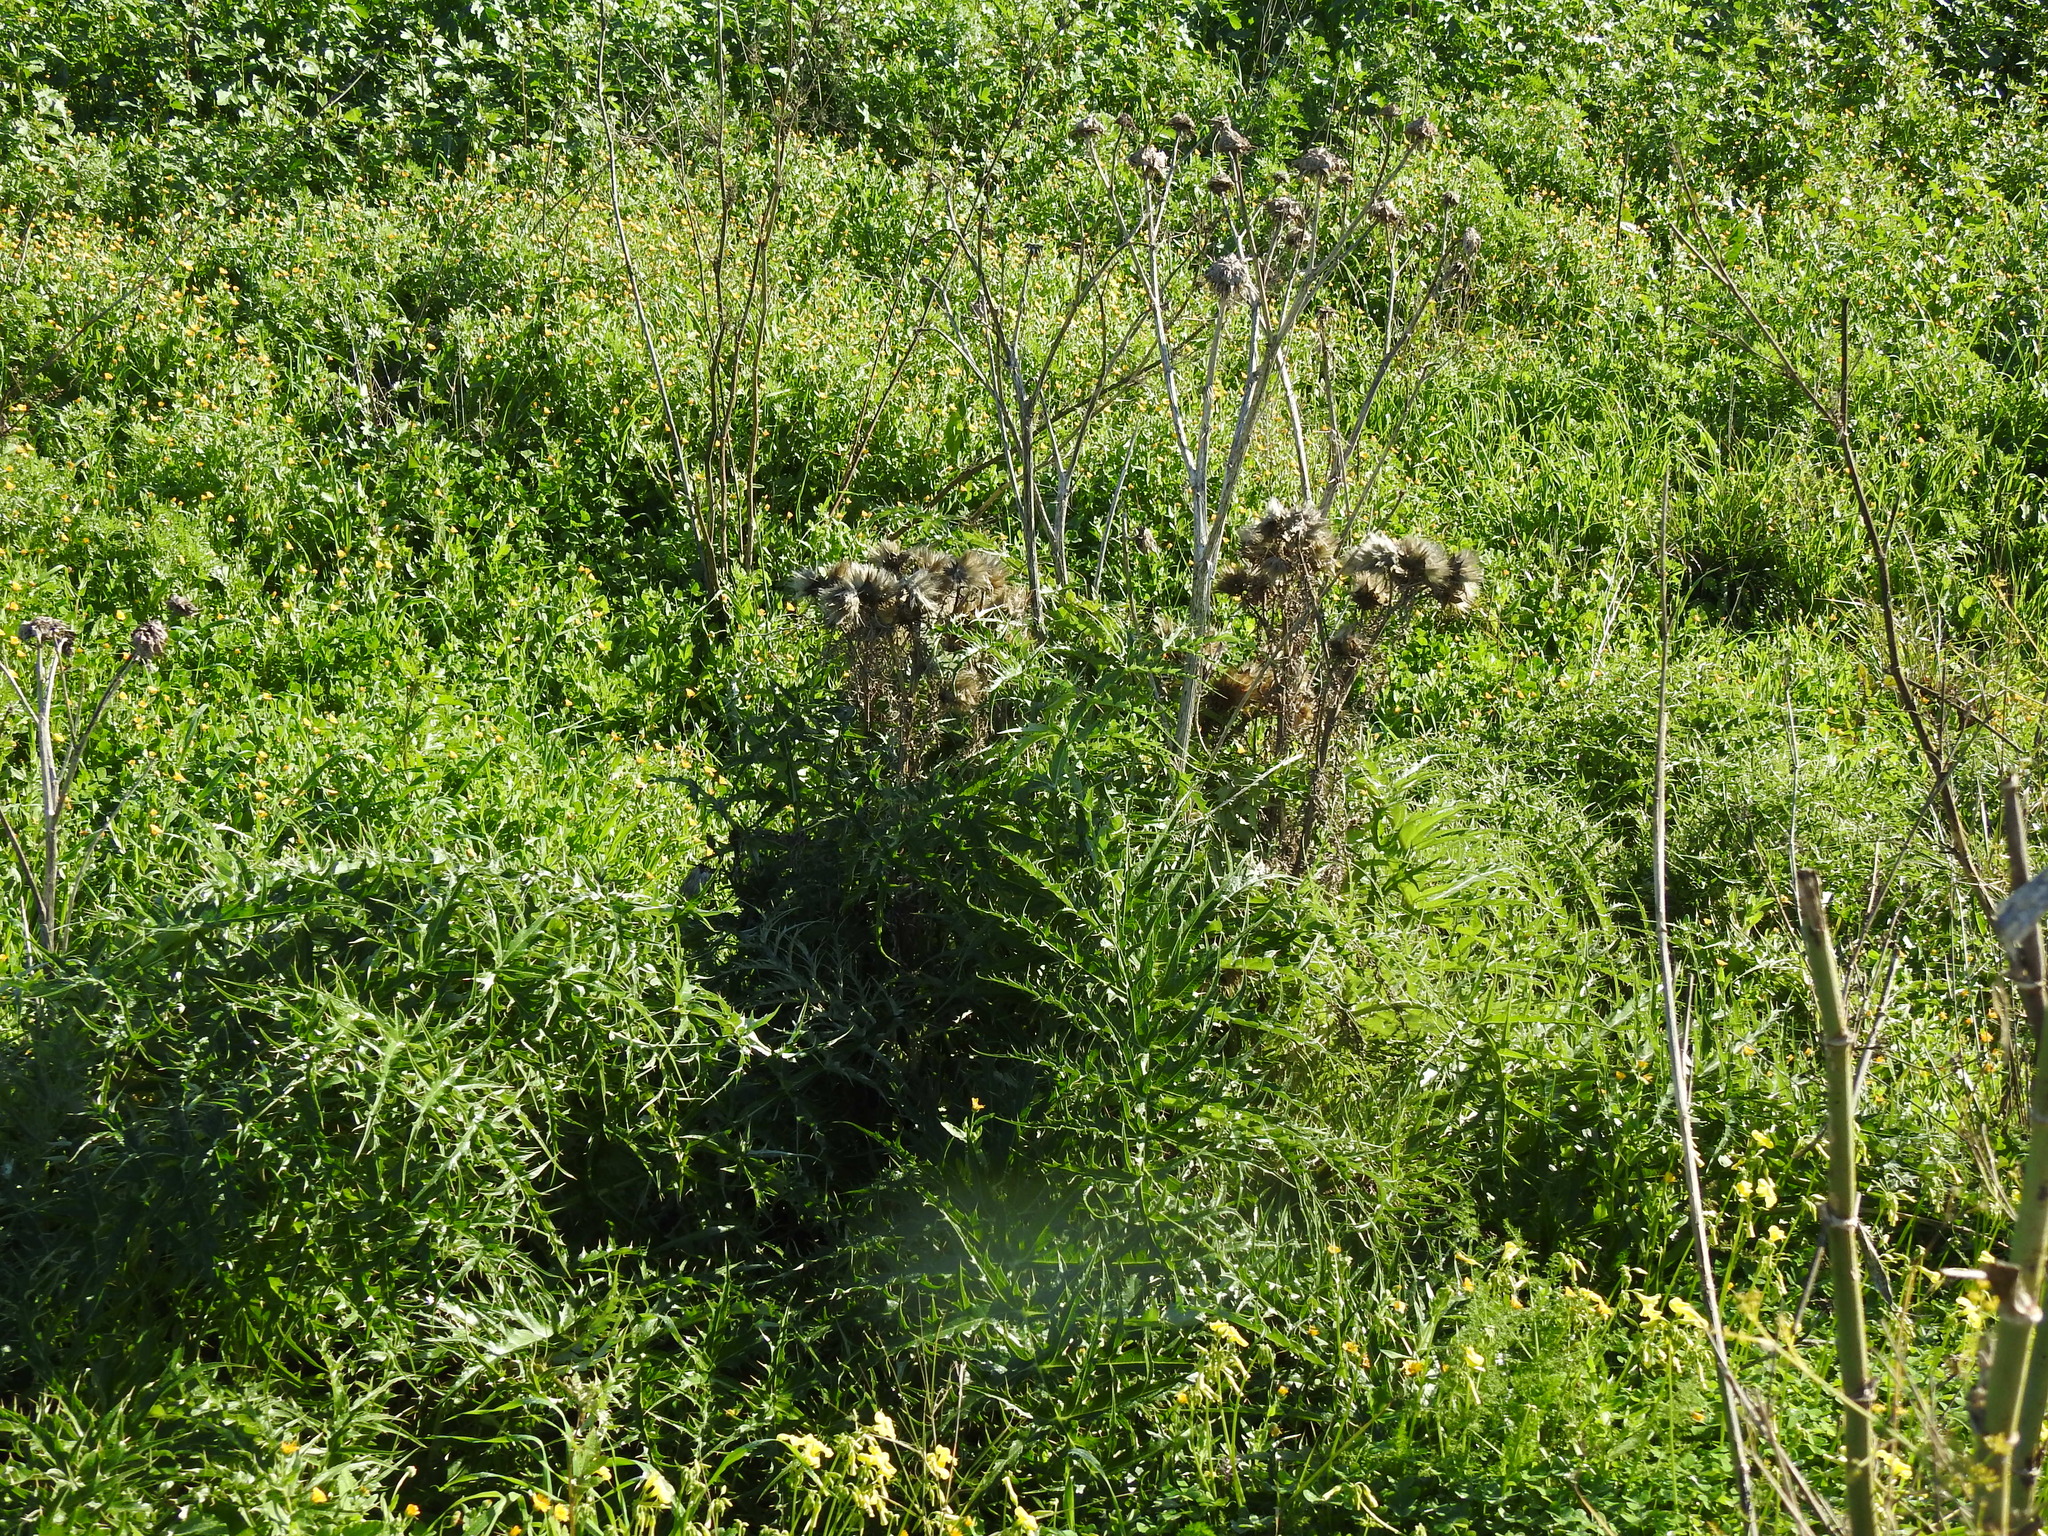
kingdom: Plantae
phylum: Tracheophyta
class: Magnoliopsida
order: Asterales
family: Asteraceae
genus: Cynara
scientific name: Cynara cardunculus
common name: Globe artichoke
